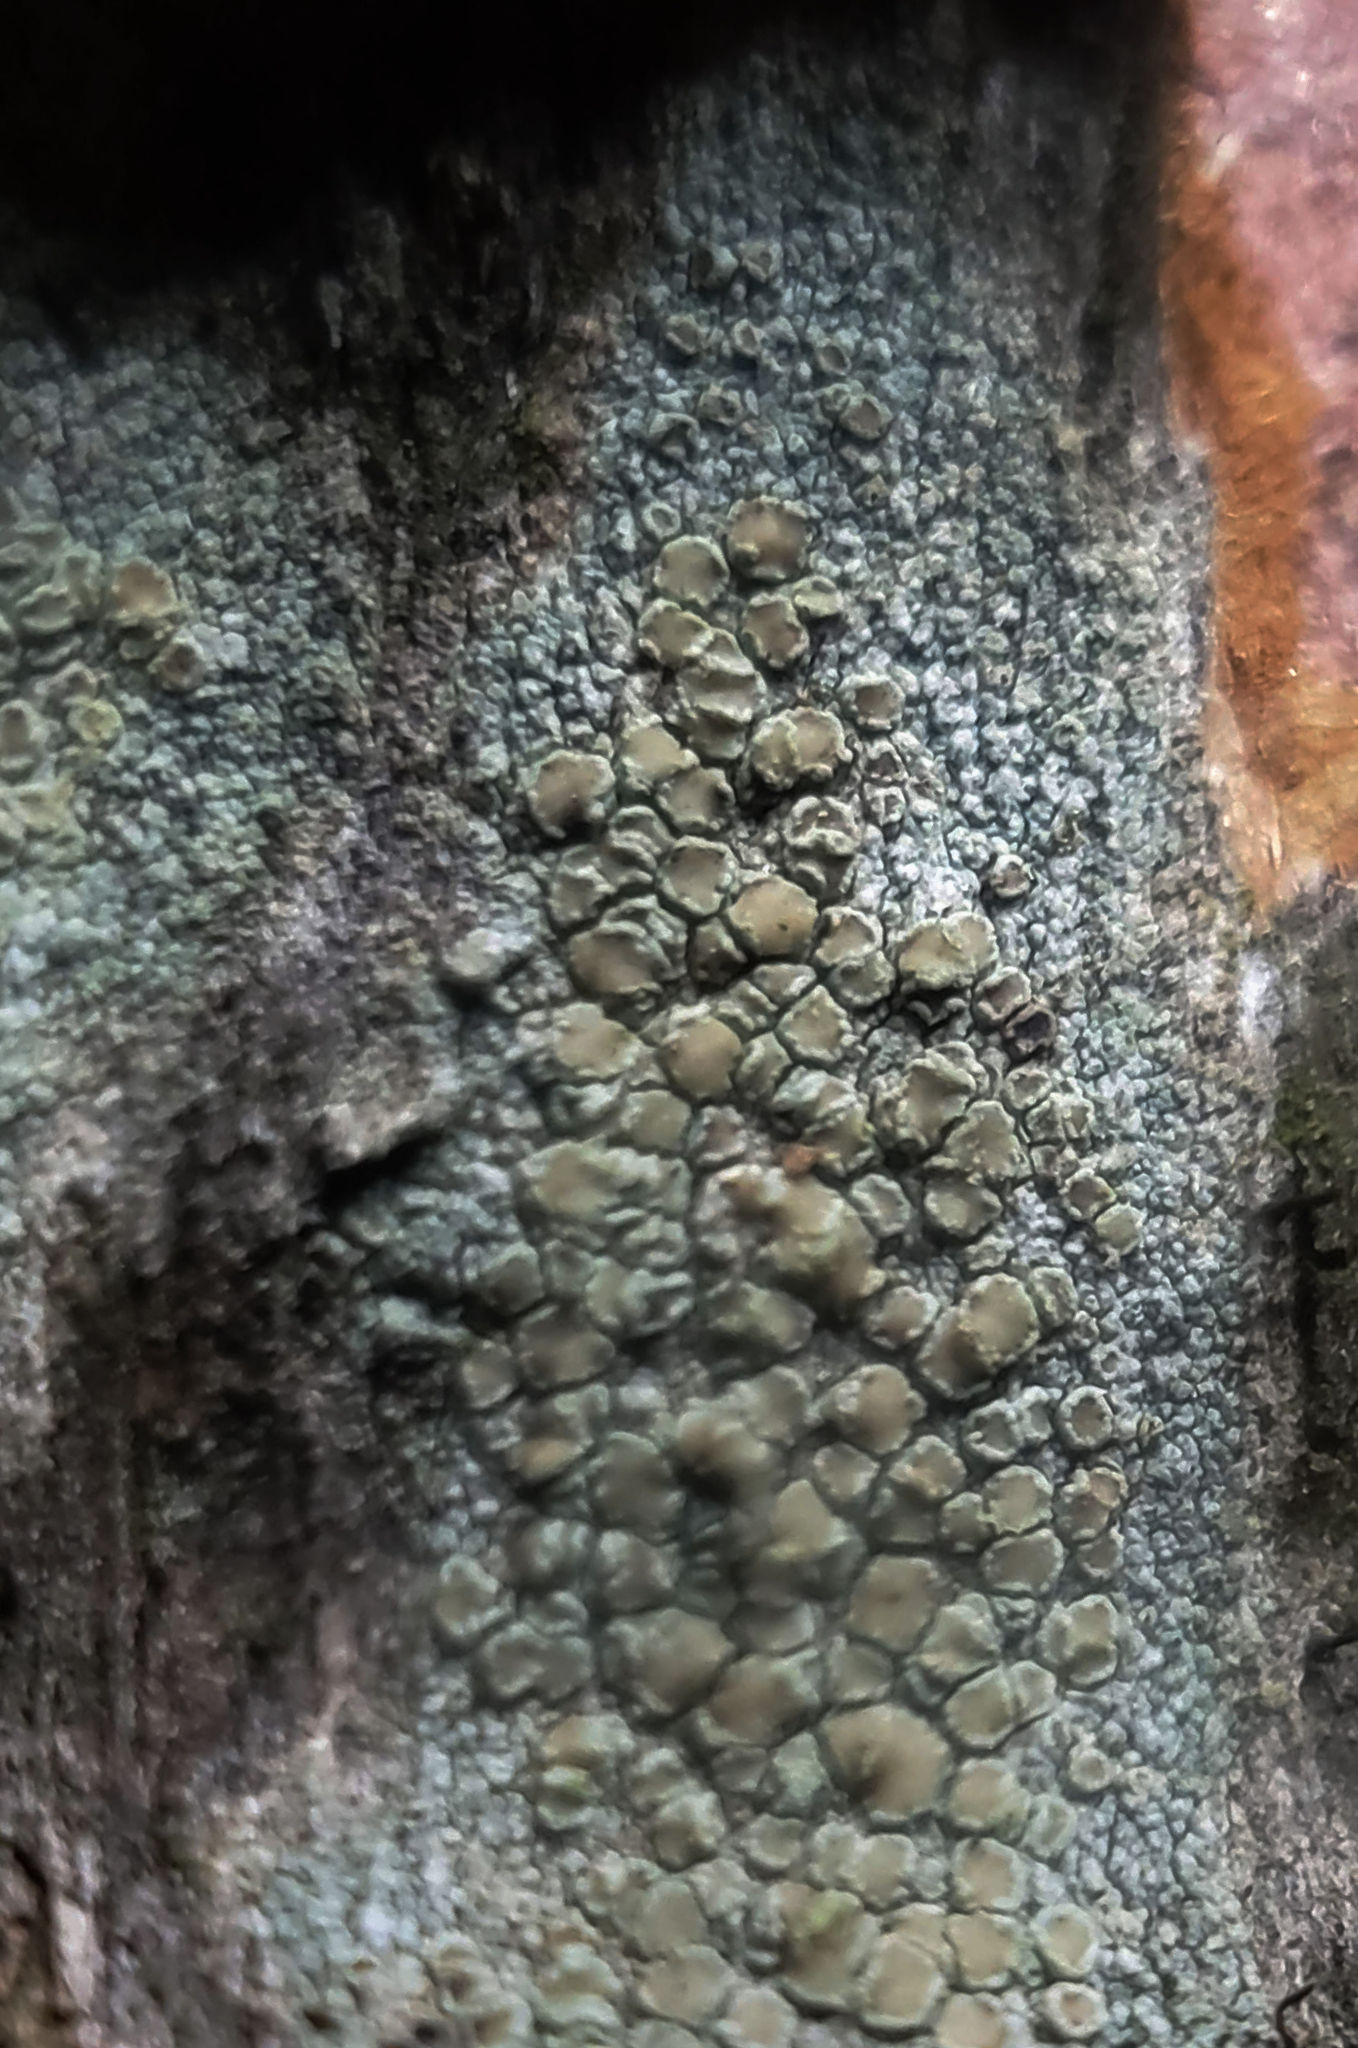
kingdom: Fungi
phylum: Ascomycota
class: Lecanoromycetes
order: Lecanorales
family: Lecanoraceae
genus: Lecanora
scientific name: Lecanora strobilina
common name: Mealy rim-lichen
